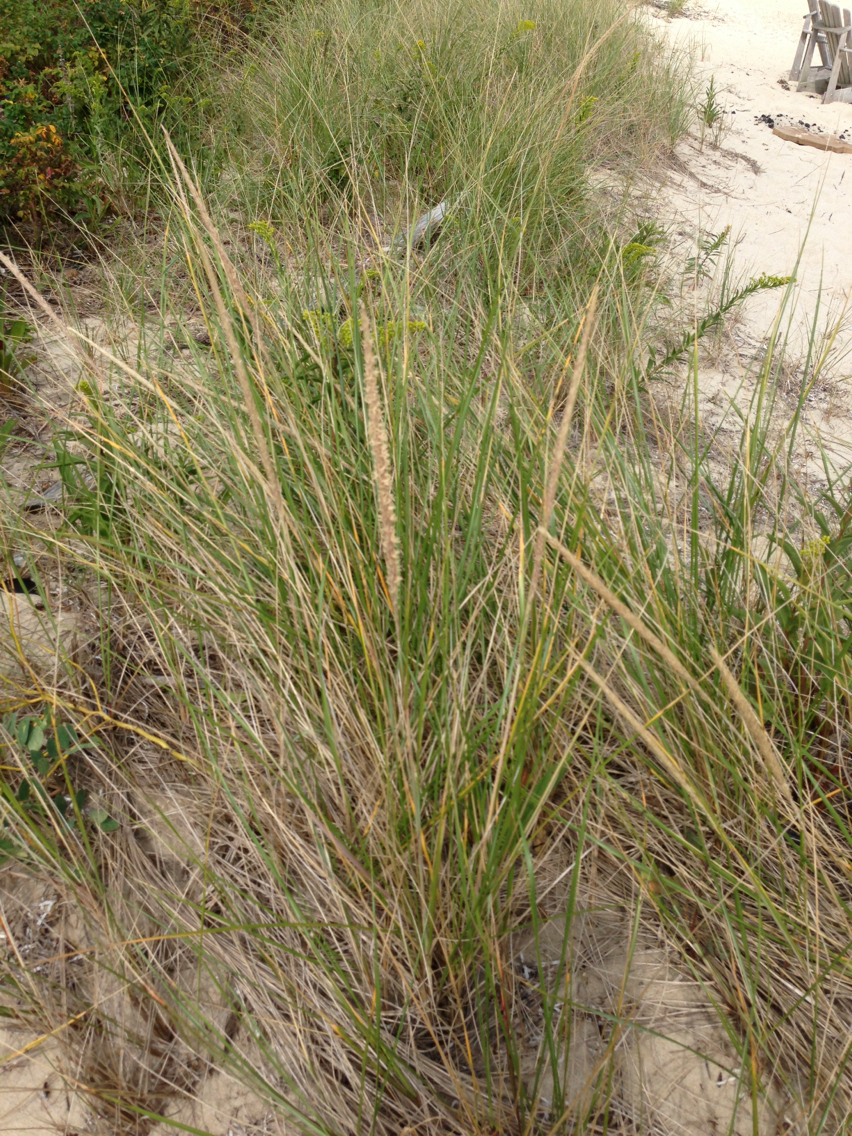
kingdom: Plantae
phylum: Tracheophyta
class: Liliopsida
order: Poales
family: Poaceae
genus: Calamagrostis
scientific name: Calamagrostis breviligulata
